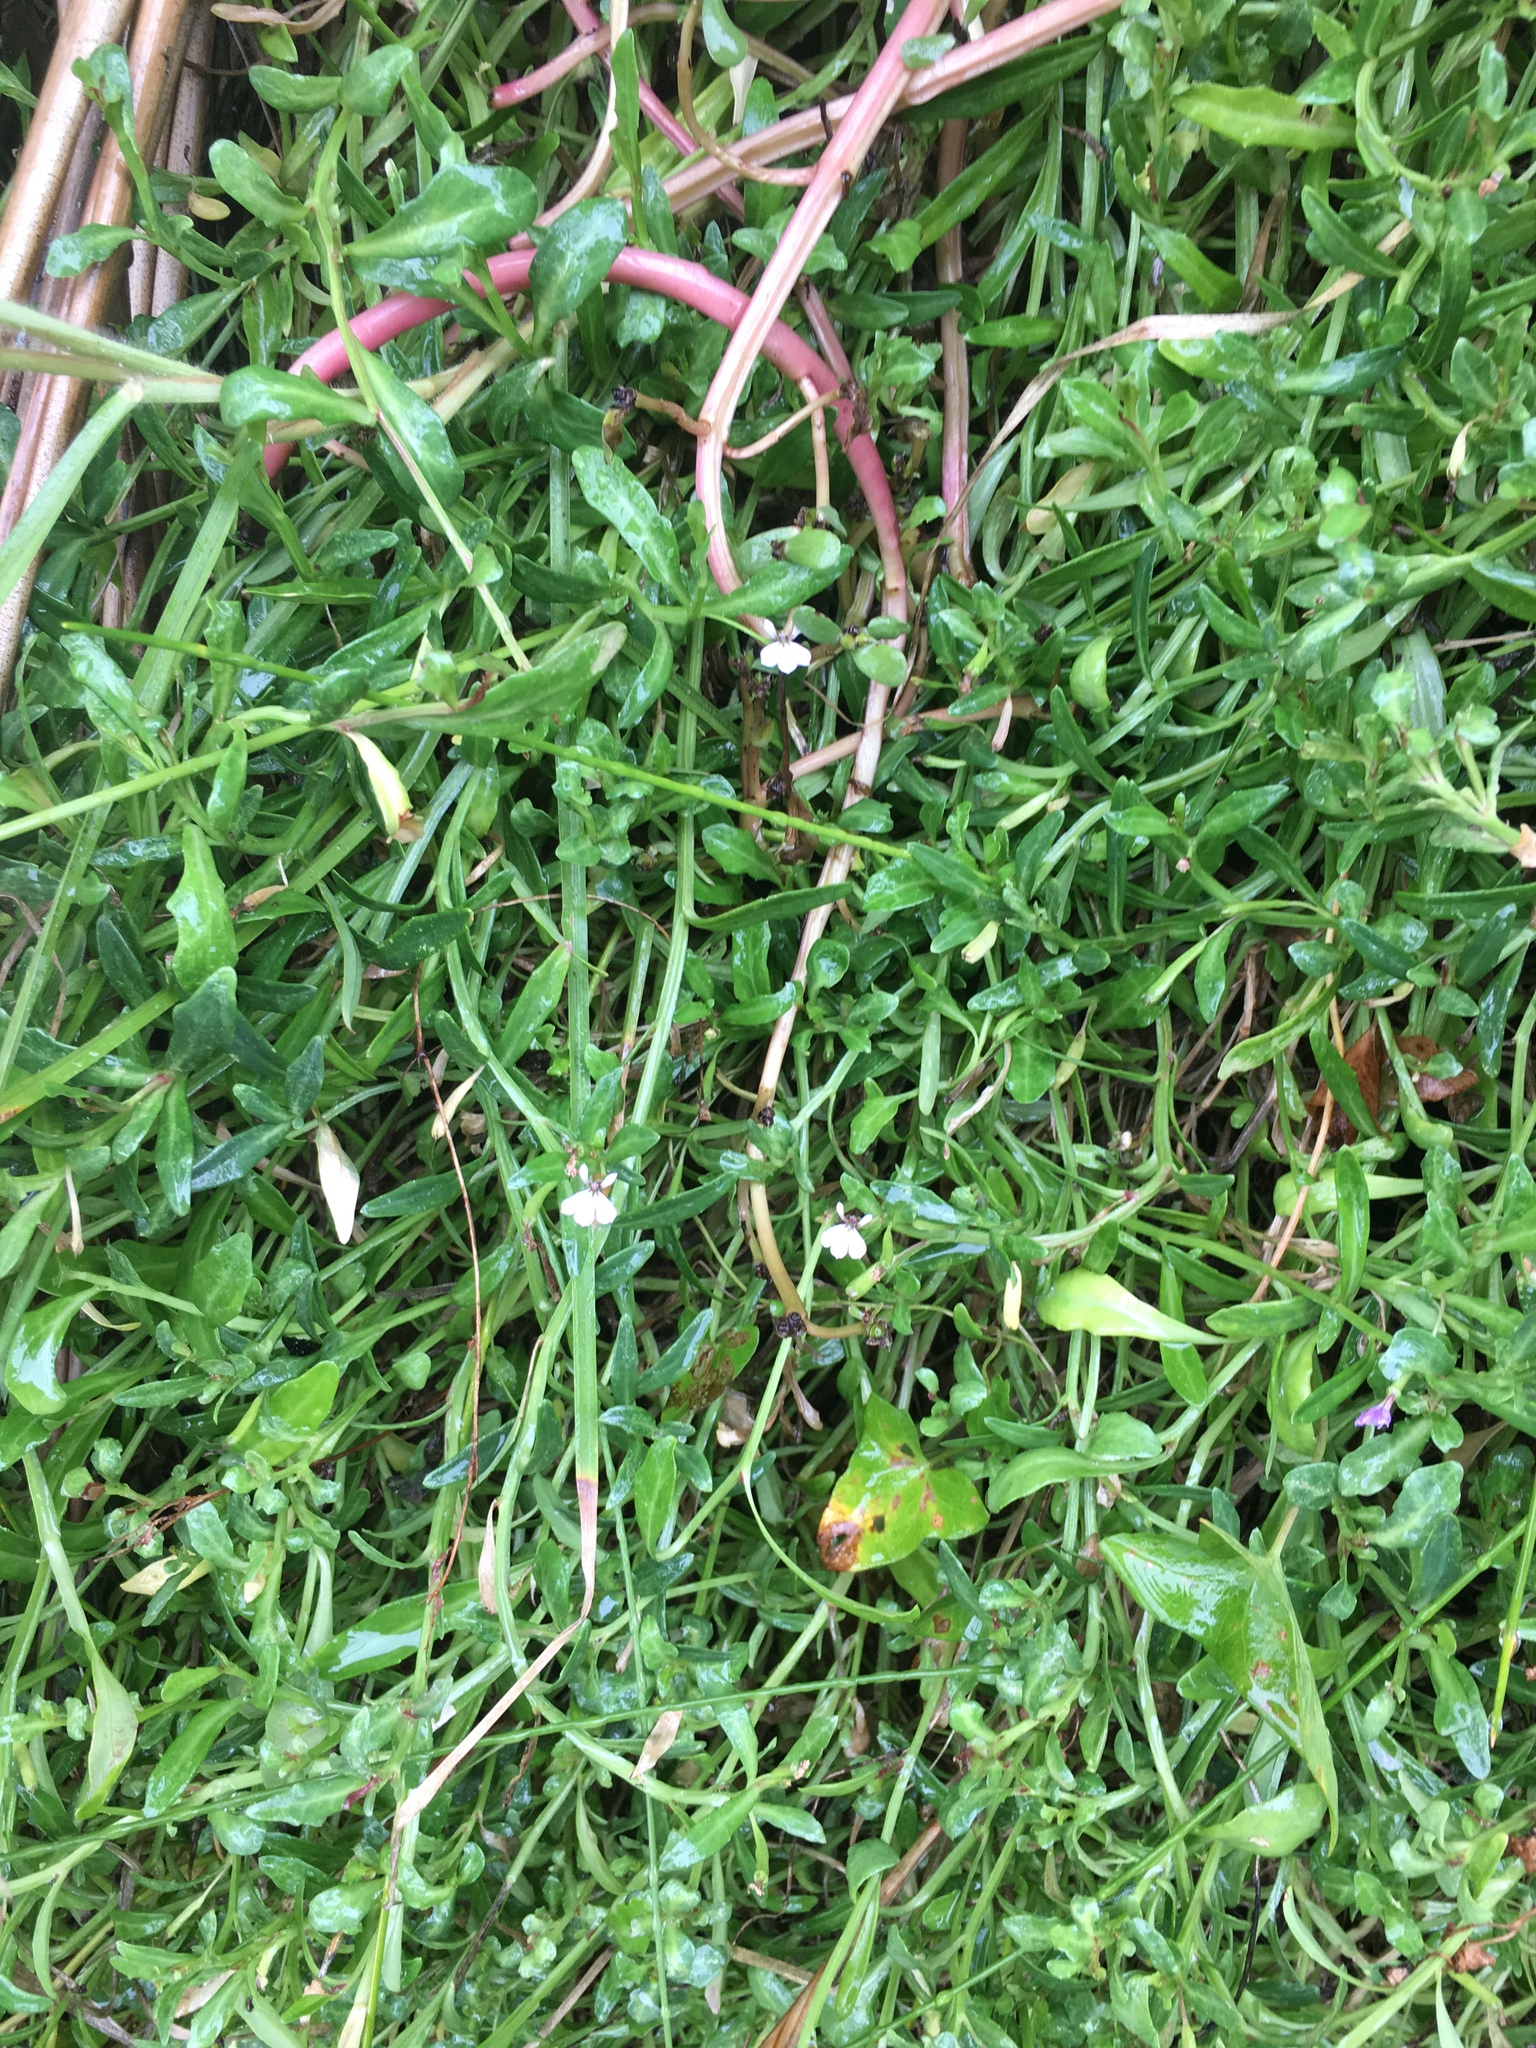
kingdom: Plantae
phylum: Tracheophyta
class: Magnoliopsida
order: Asterales
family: Campanulaceae
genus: Lobelia
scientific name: Lobelia anceps
